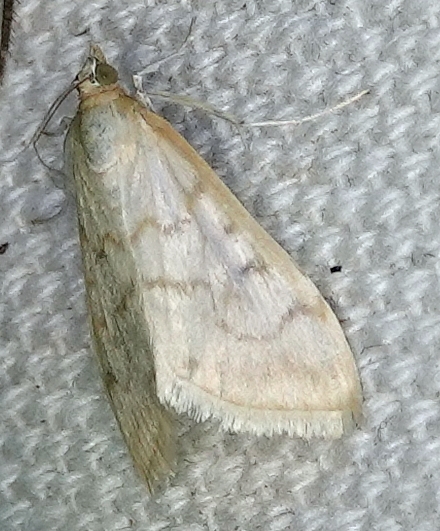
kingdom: Animalia
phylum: Arthropoda
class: Insecta
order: Lepidoptera
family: Crambidae
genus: Hahncappsia
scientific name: Hahncappsia pergilvalis
